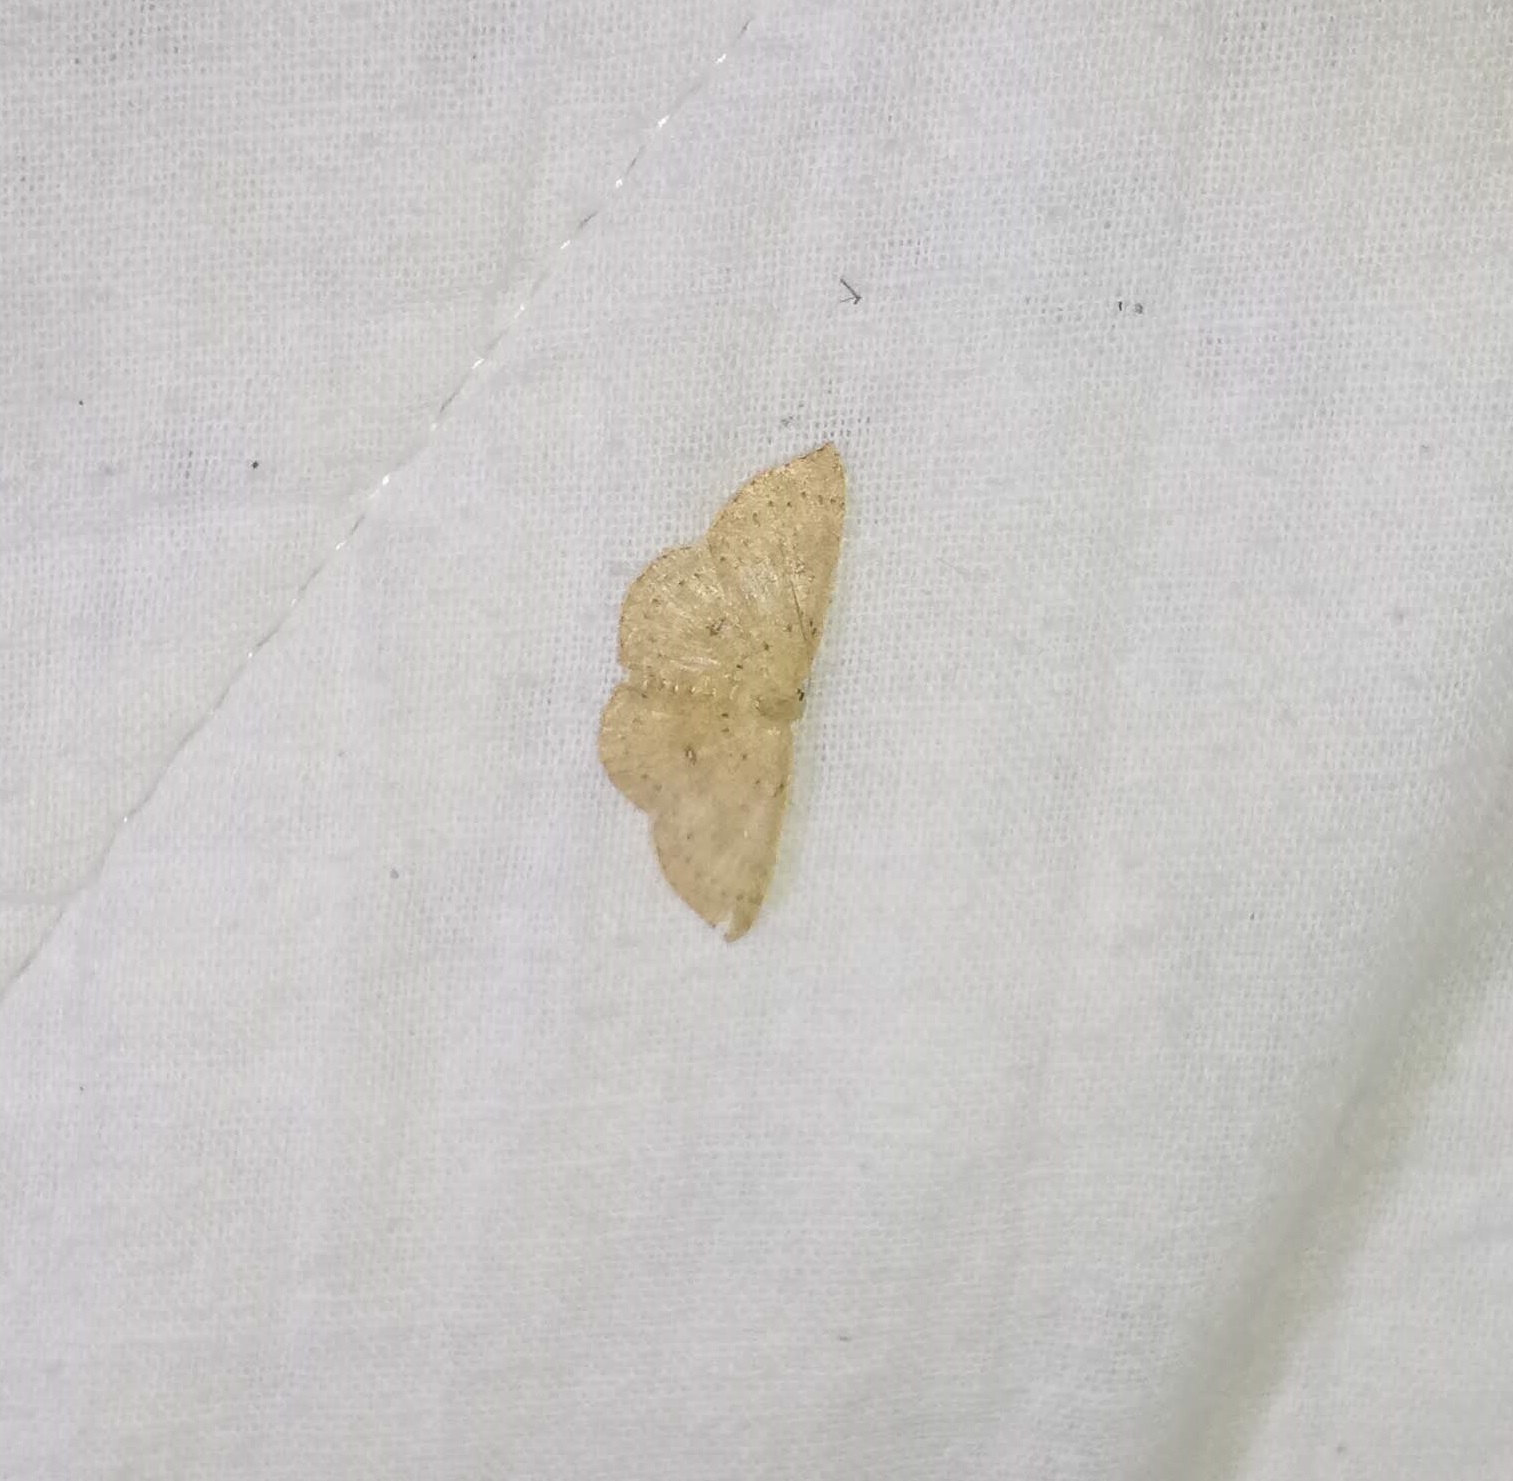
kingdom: Animalia
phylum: Arthropoda
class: Insecta
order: Lepidoptera
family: Geometridae
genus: Cyclophora
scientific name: Cyclophora packardi
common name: Packard's wave
